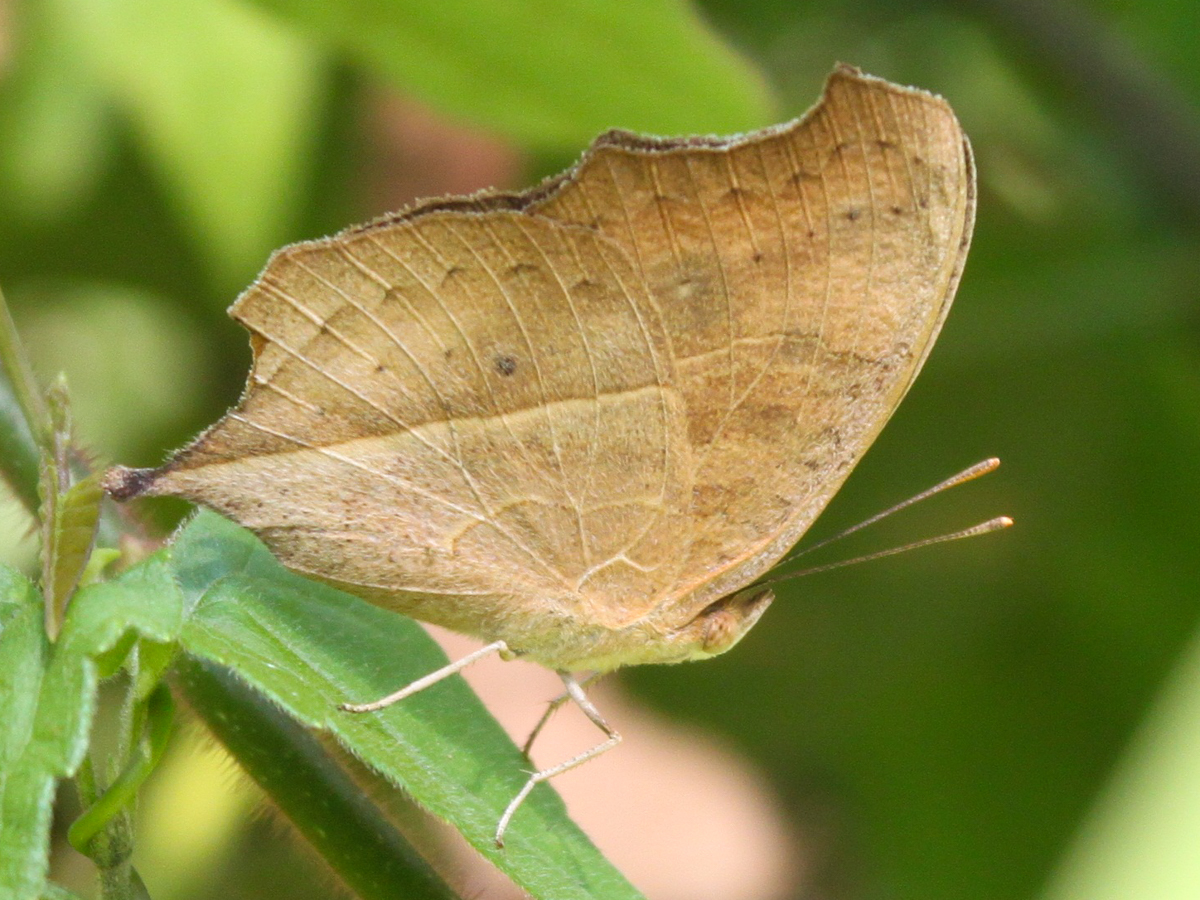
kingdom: Animalia
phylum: Arthropoda
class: Insecta
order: Lepidoptera
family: Nymphalidae
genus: Junonia
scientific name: Junonia almana
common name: Peacock pansy
